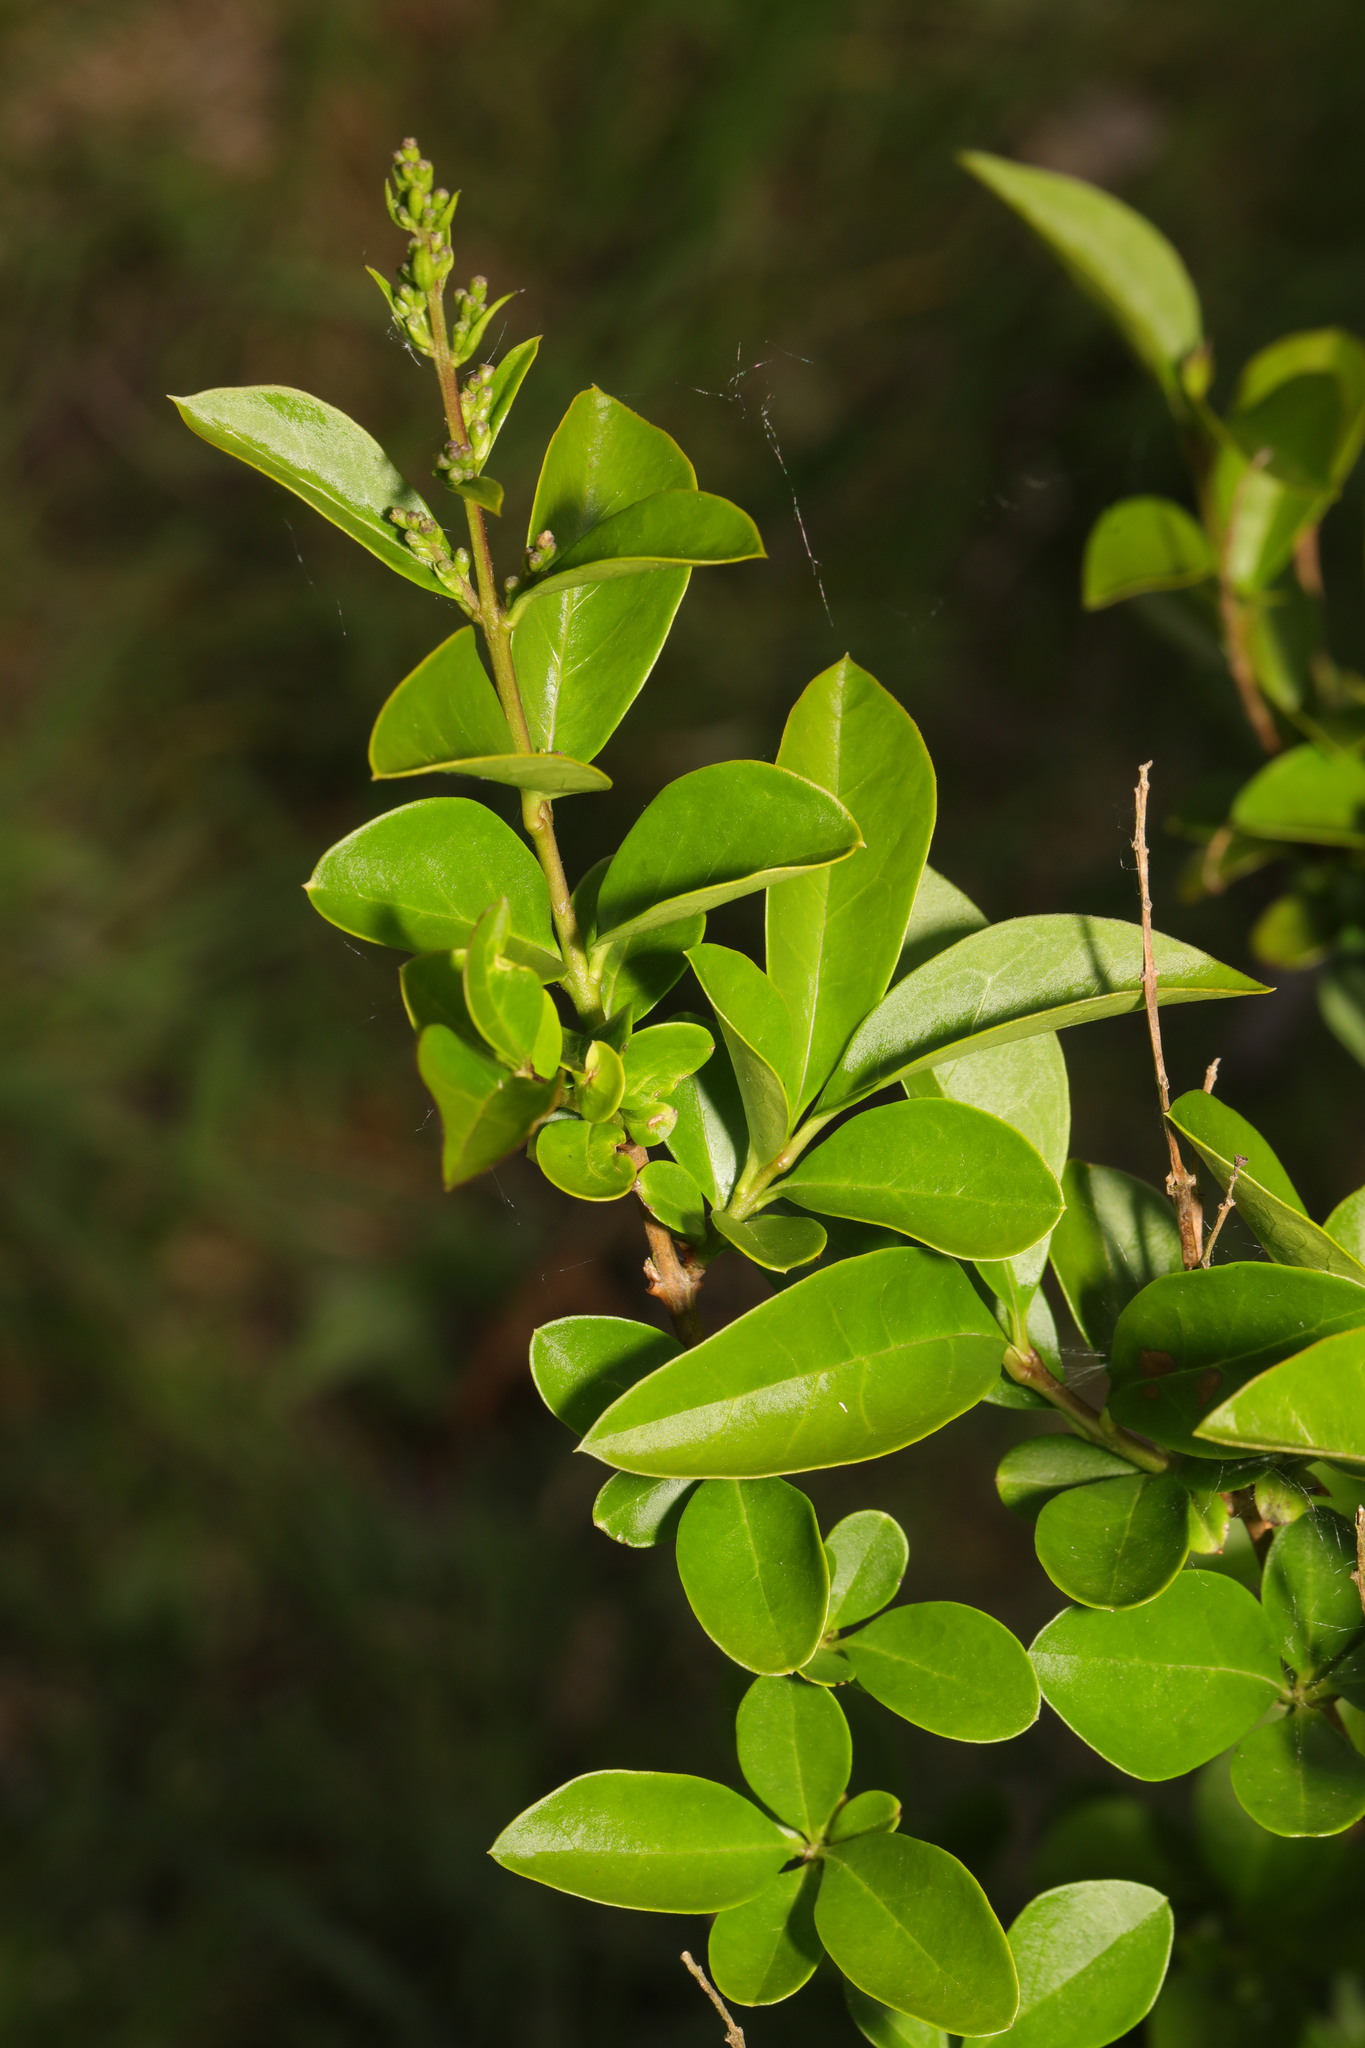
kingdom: Plantae
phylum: Tracheophyta
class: Magnoliopsida
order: Lamiales
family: Oleaceae
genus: Ligustrum
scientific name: Ligustrum ovalifolium
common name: California privet
